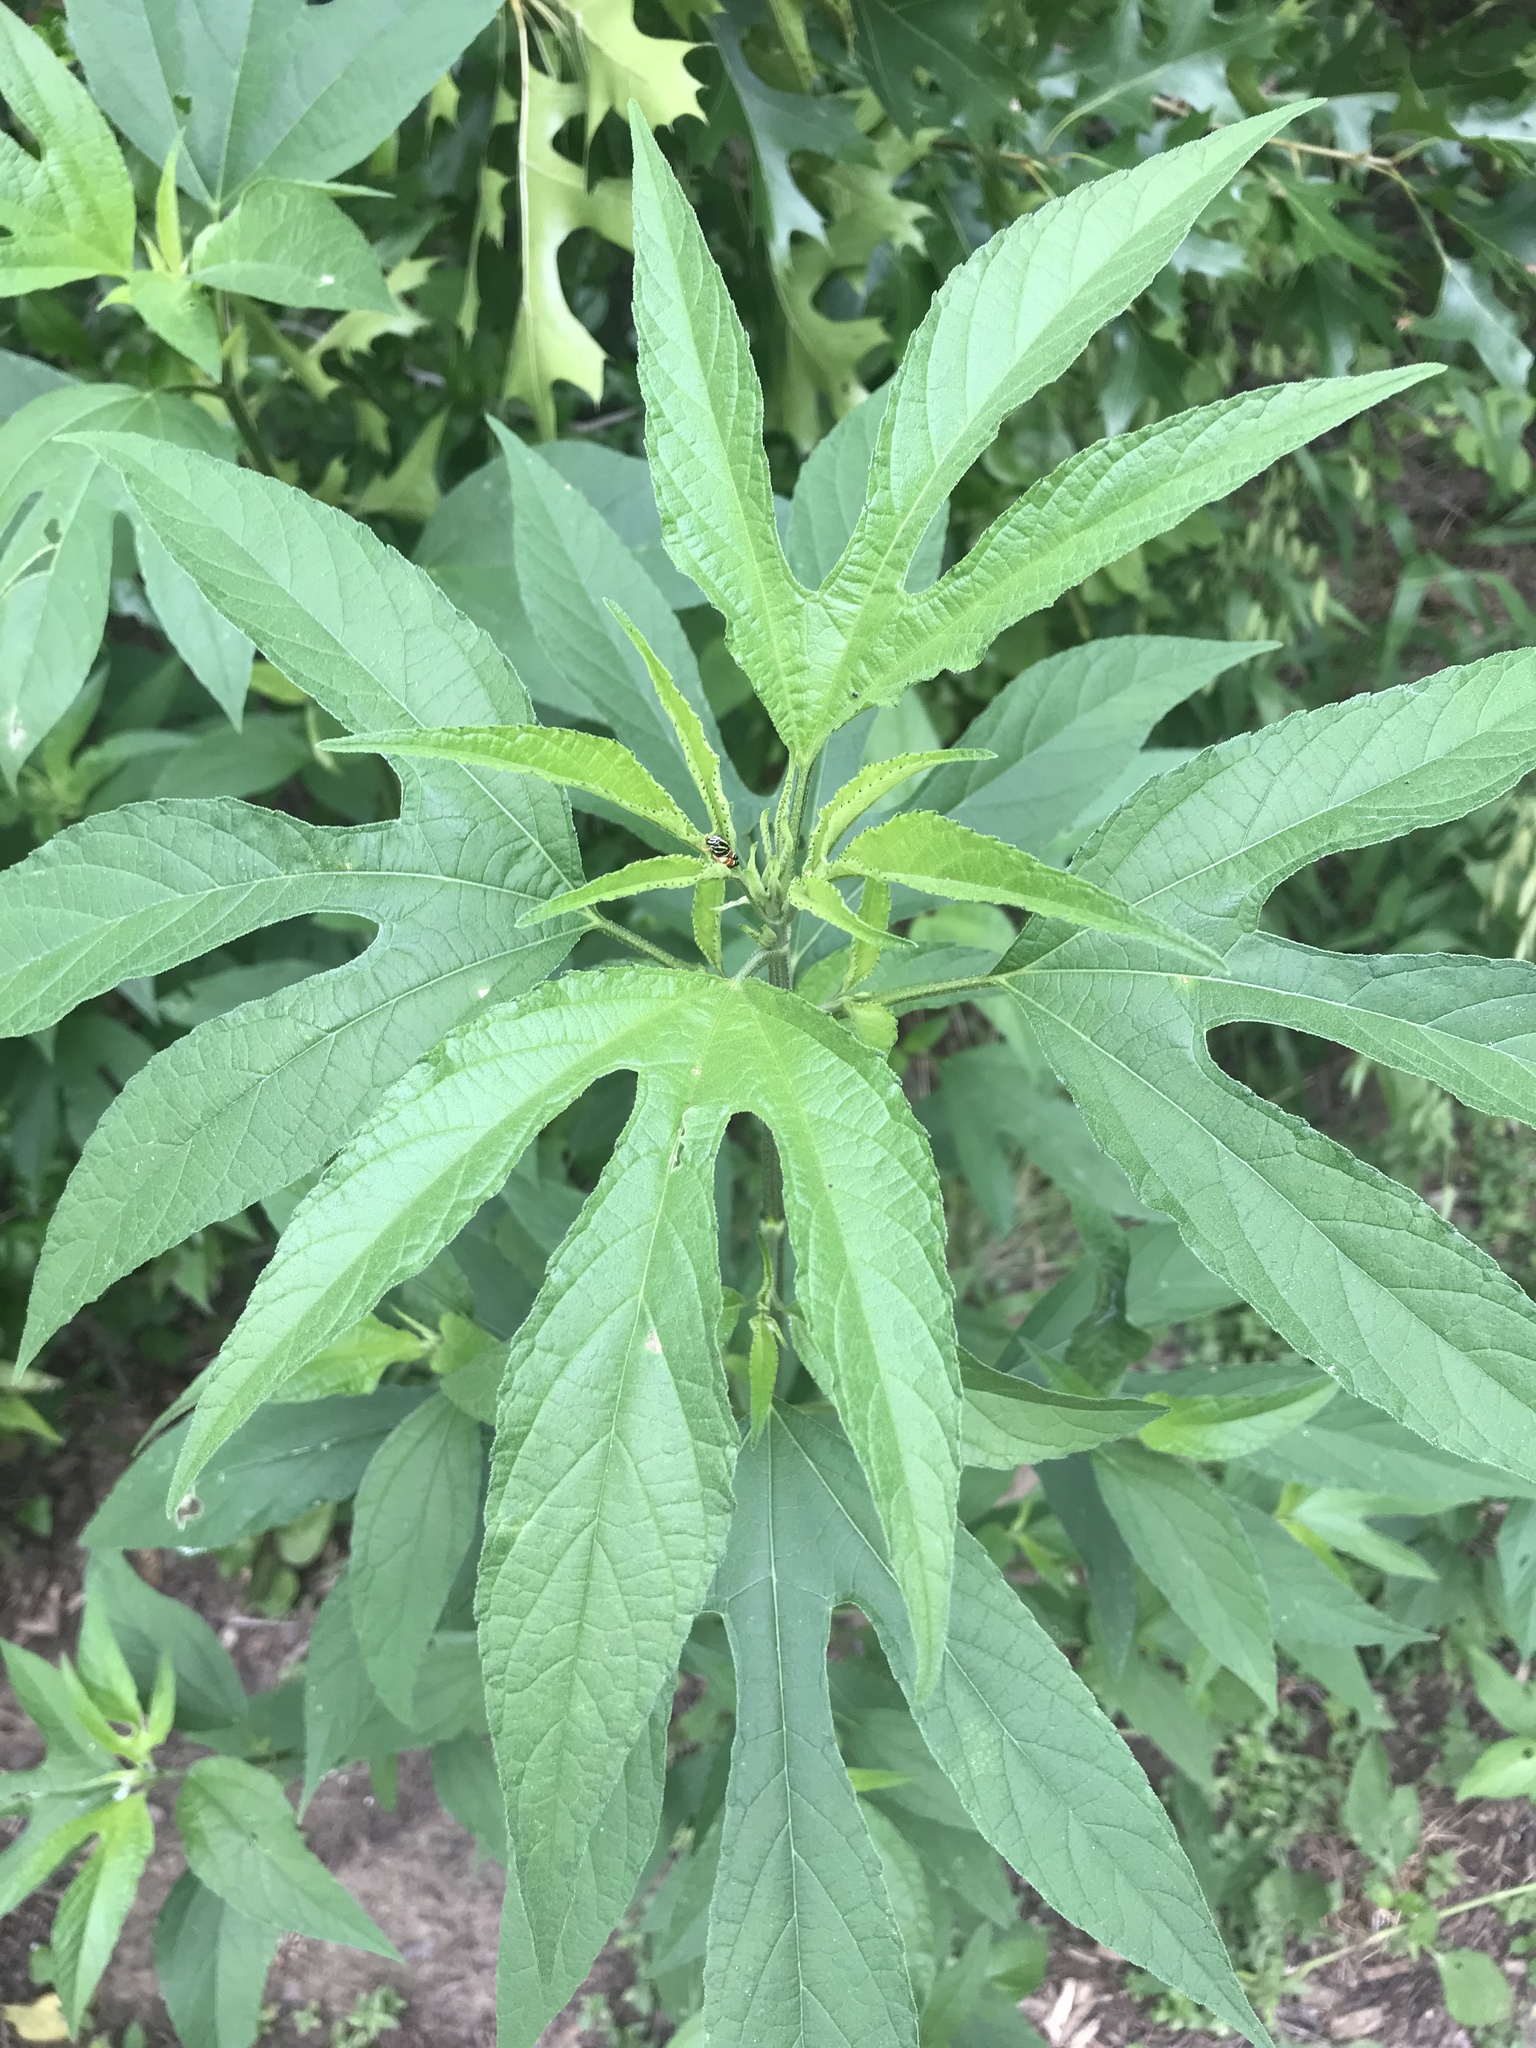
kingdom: Plantae
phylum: Tracheophyta
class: Magnoliopsida
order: Asterales
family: Asteraceae
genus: Ambrosia
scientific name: Ambrosia trifida
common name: Giant ragweed
